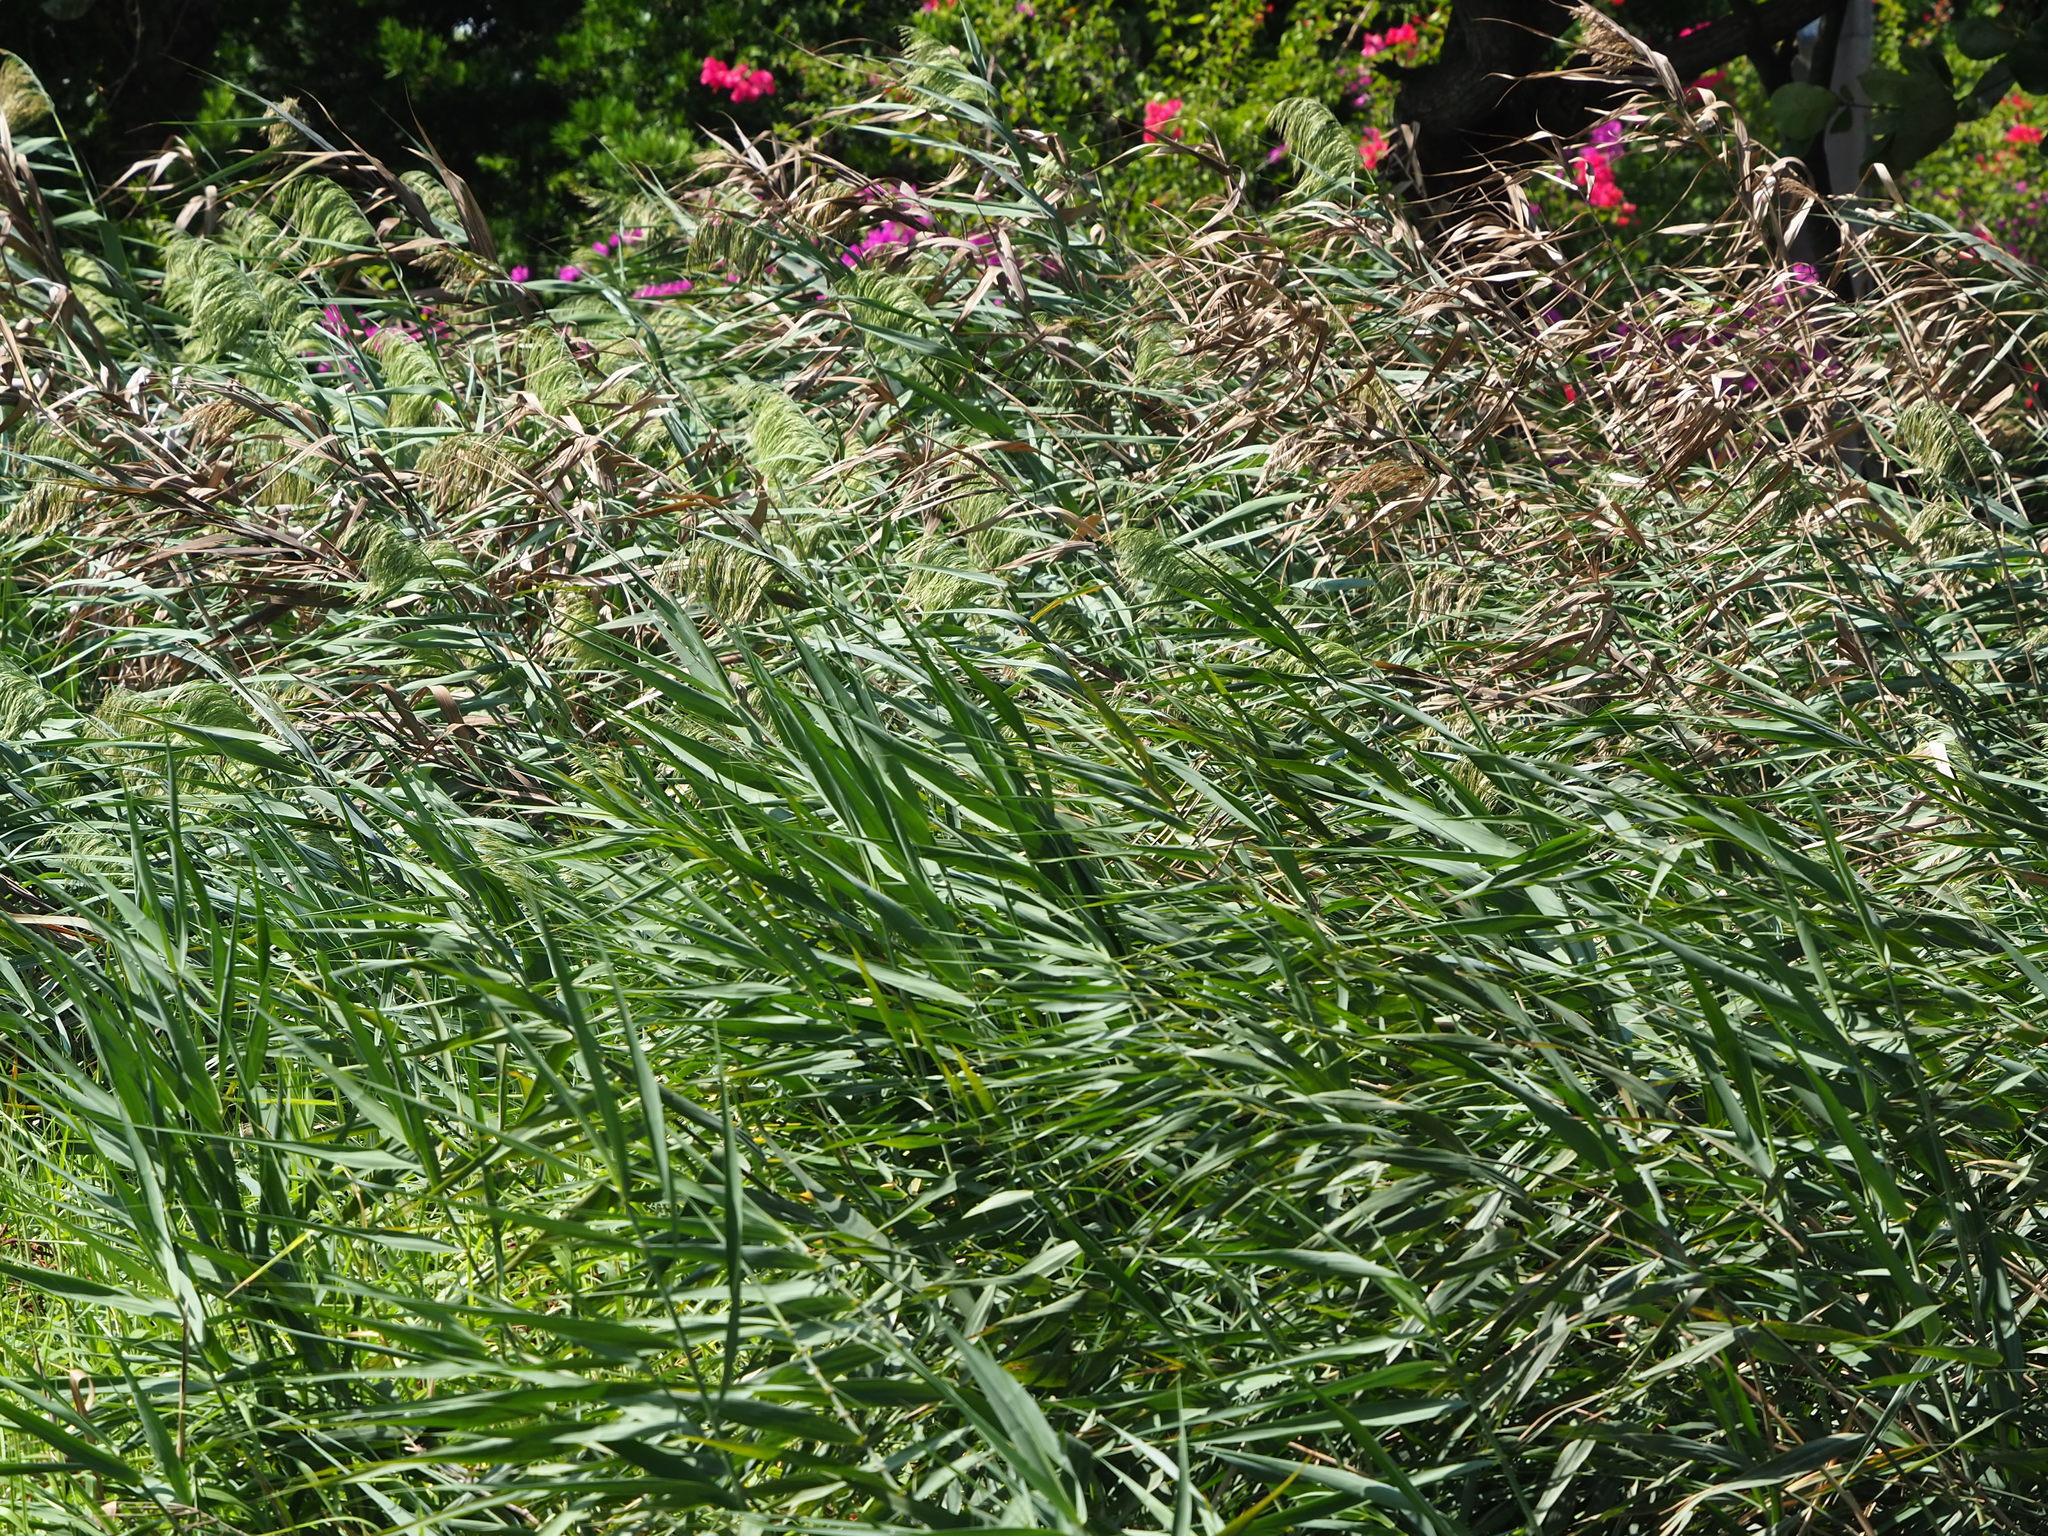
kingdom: Plantae
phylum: Tracheophyta
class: Liliopsida
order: Poales
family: Poaceae
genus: Phragmites
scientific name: Phragmites australis
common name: Common reed
